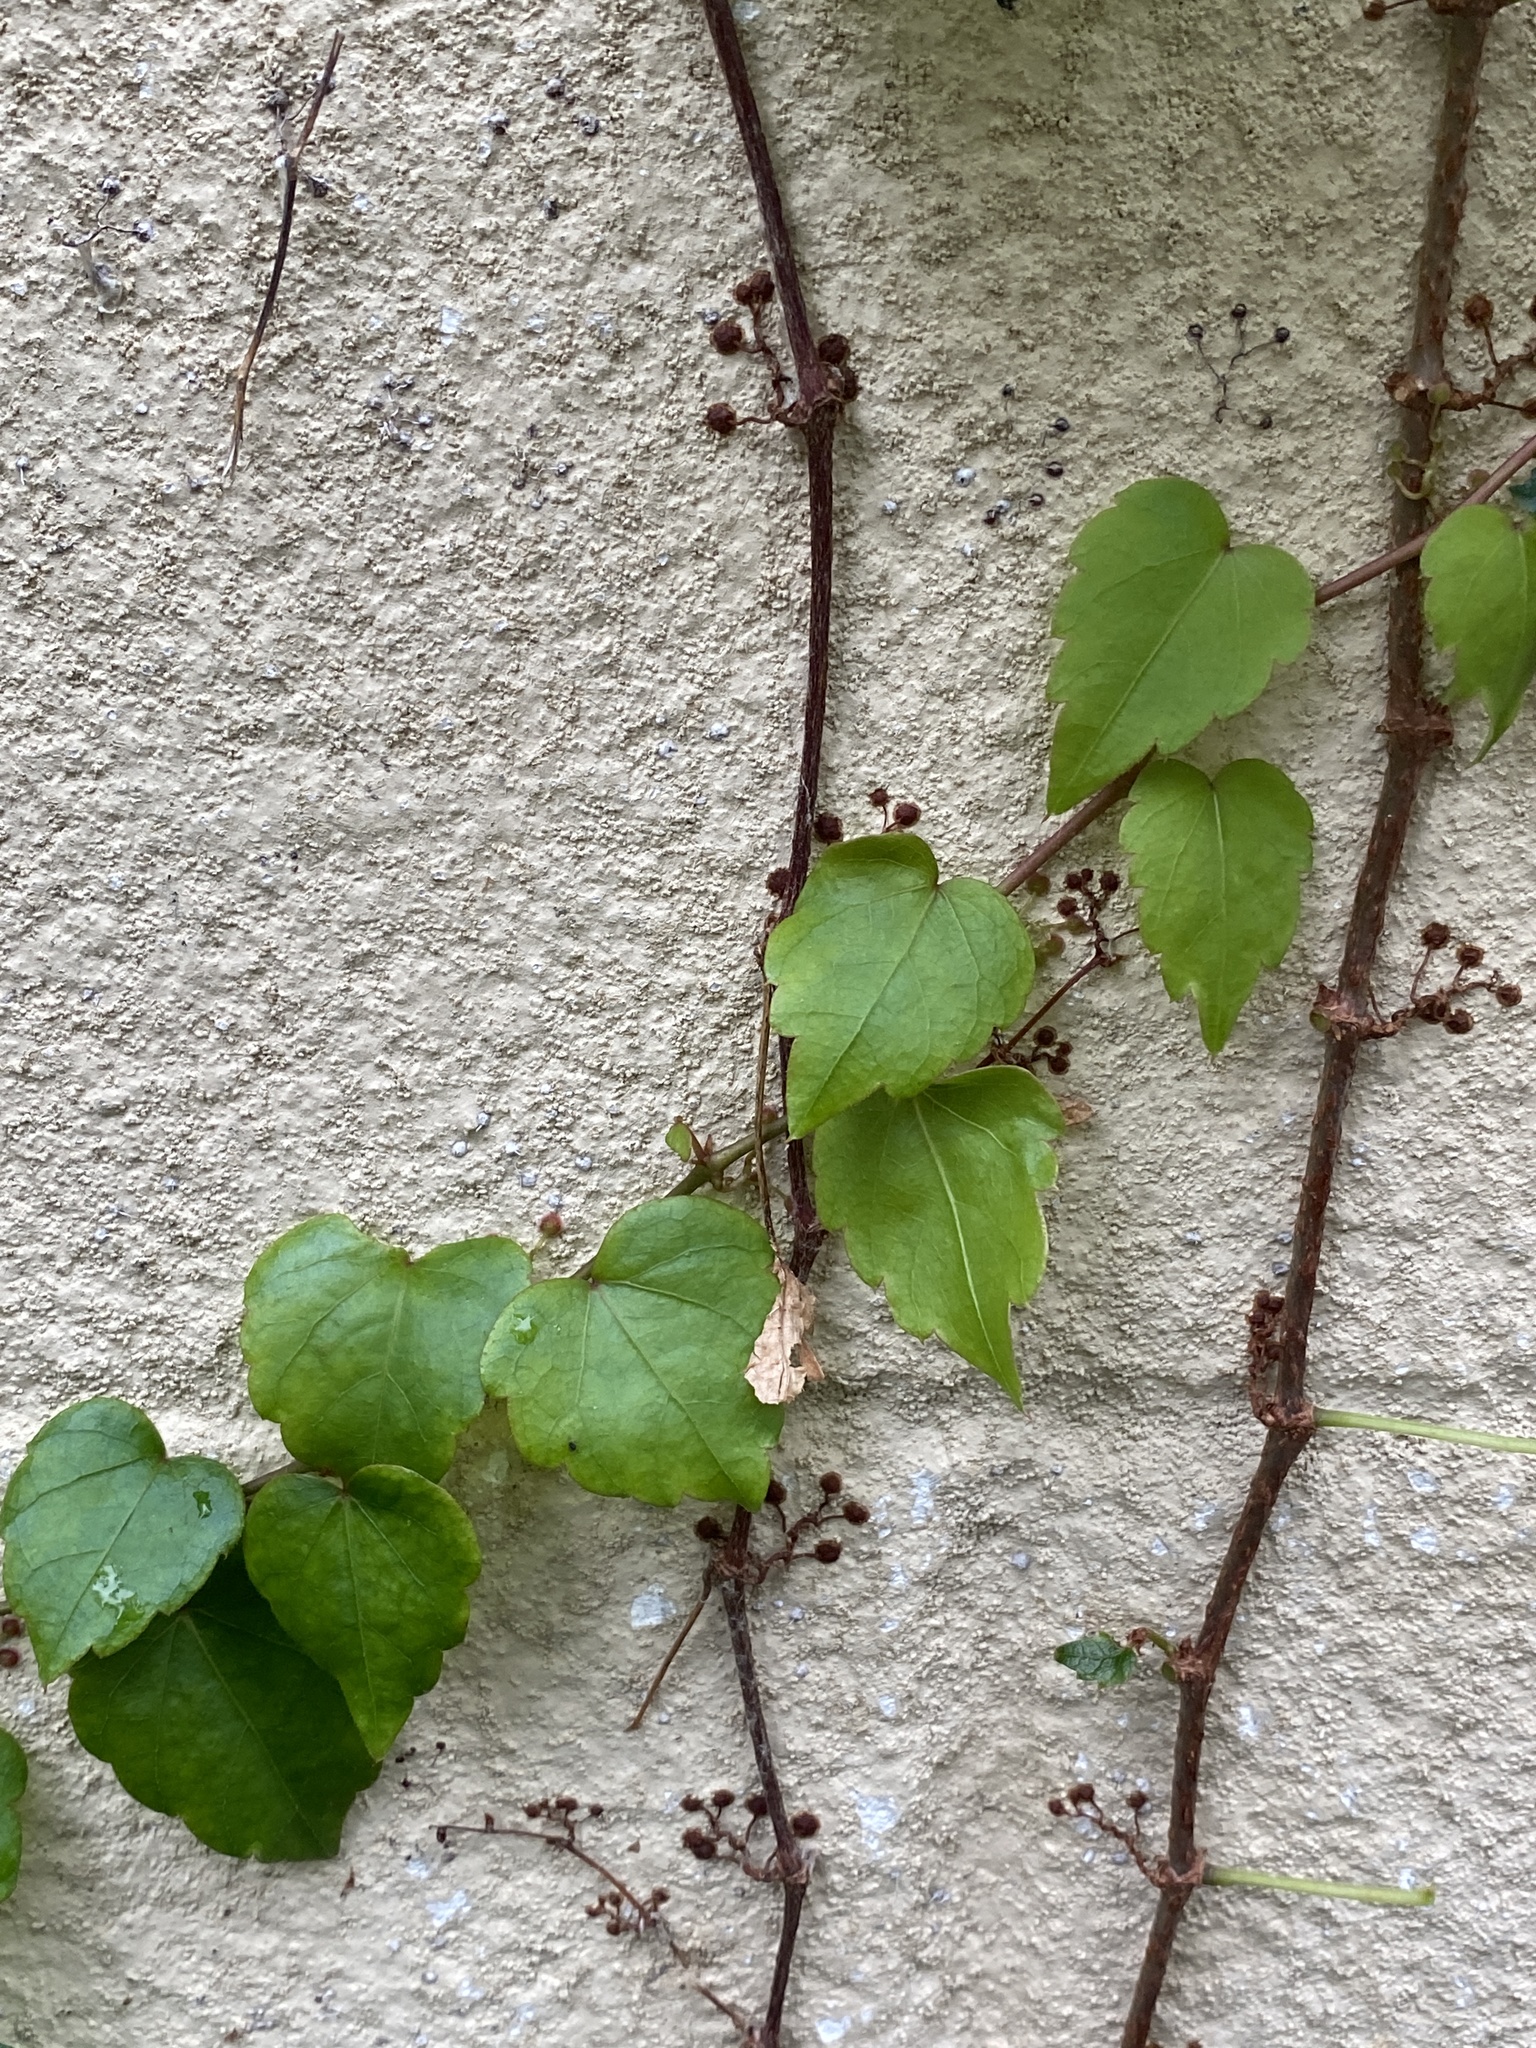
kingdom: Plantae
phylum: Tracheophyta
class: Magnoliopsida
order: Vitales
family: Vitaceae
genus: Parthenocissus
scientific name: Parthenocissus tricuspidata
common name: Boston ivy
